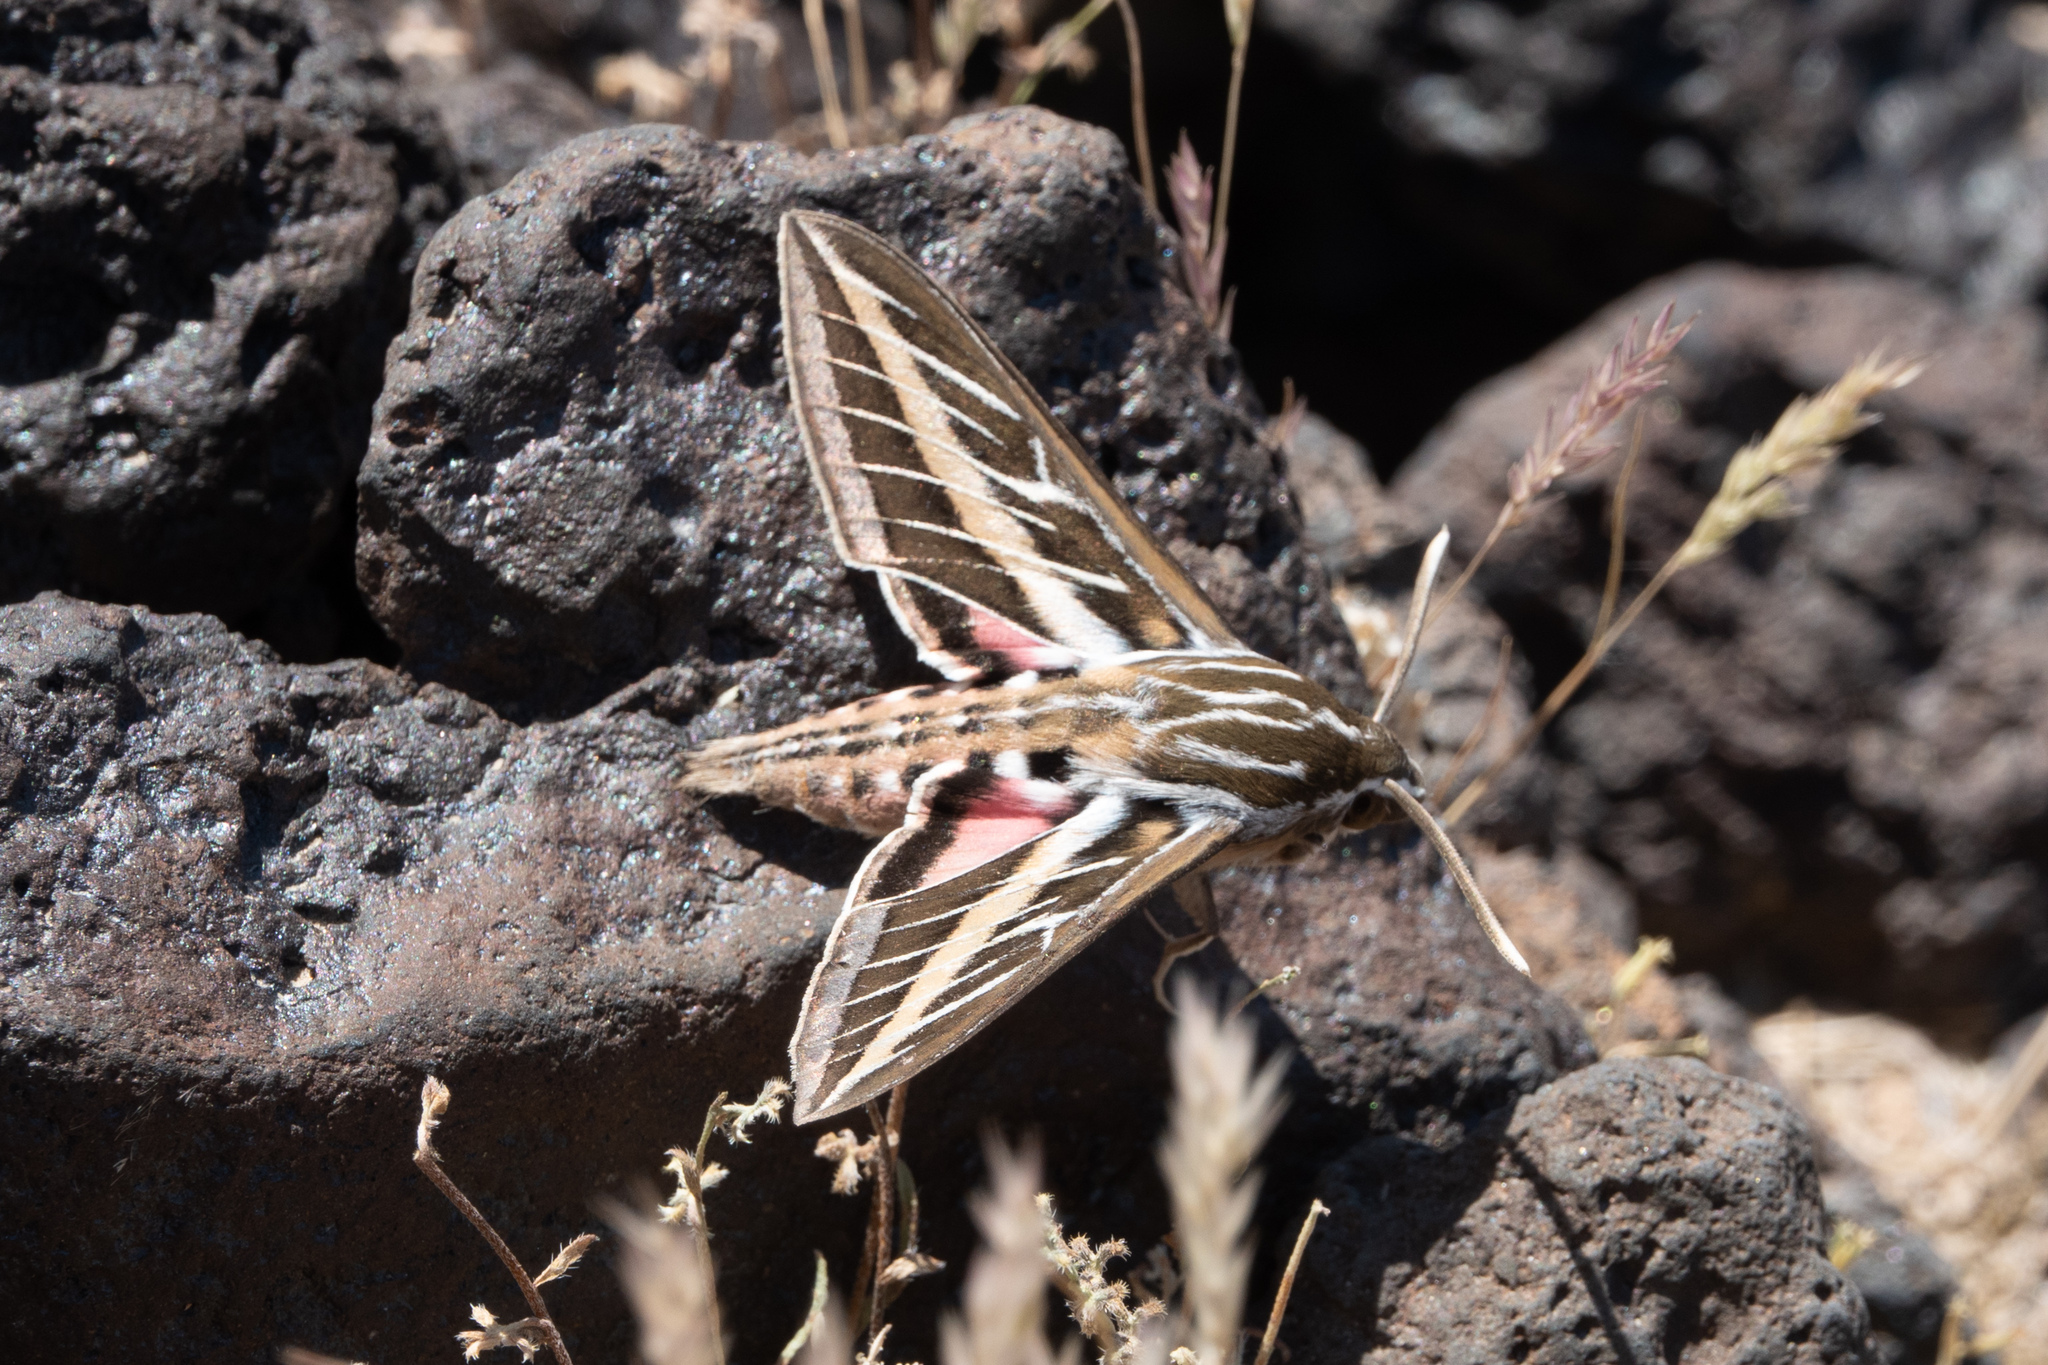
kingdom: Animalia
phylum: Arthropoda
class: Insecta
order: Lepidoptera
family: Sphingidae
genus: Hyles
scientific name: Hyles lineata
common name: White-lined sphinx
